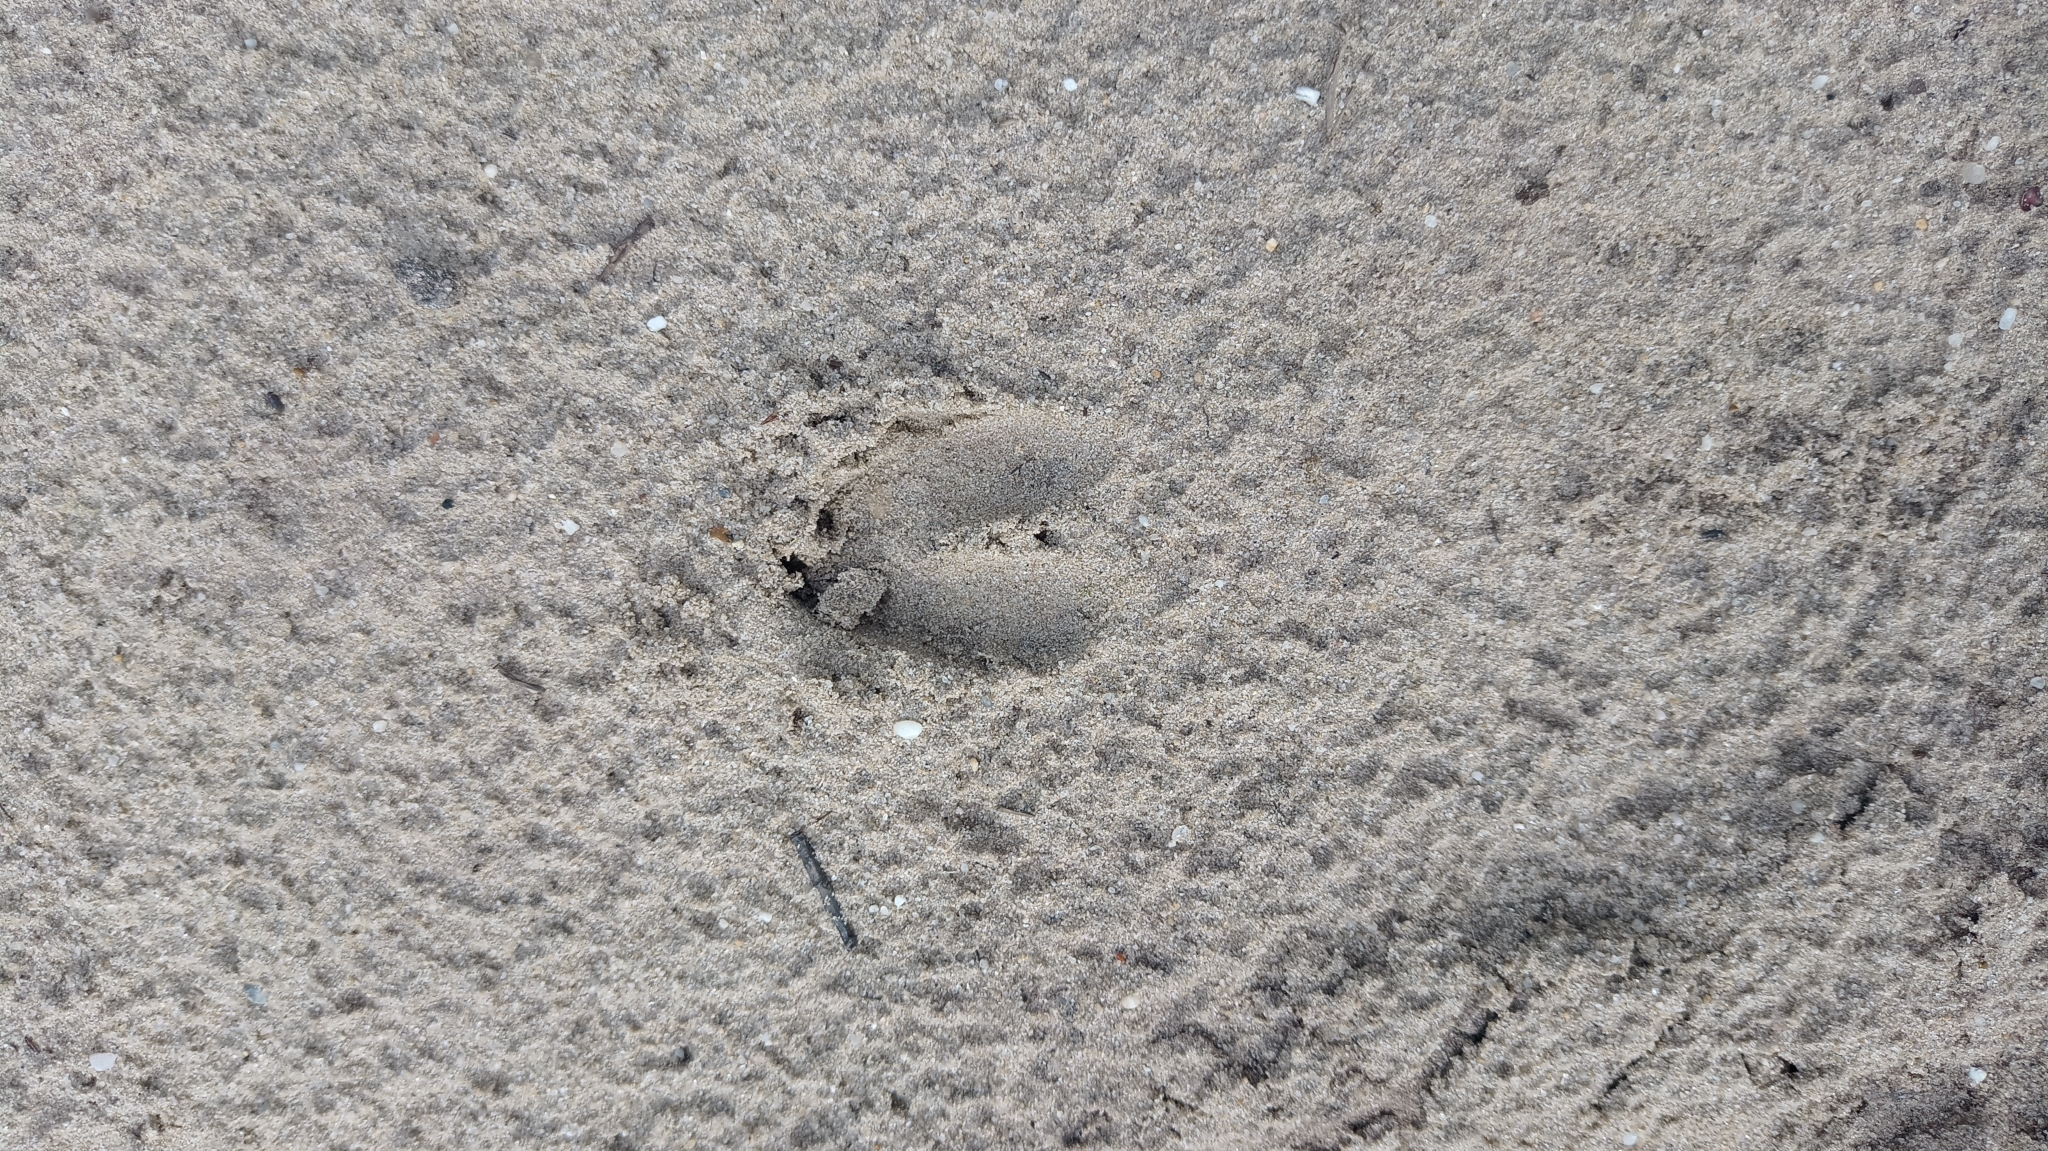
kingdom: Animalia
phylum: Chordata
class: Mammalia
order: Artiodactyla
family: Cervidae
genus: Capreolus
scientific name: Capreolus capreolus
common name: Western roe deer
